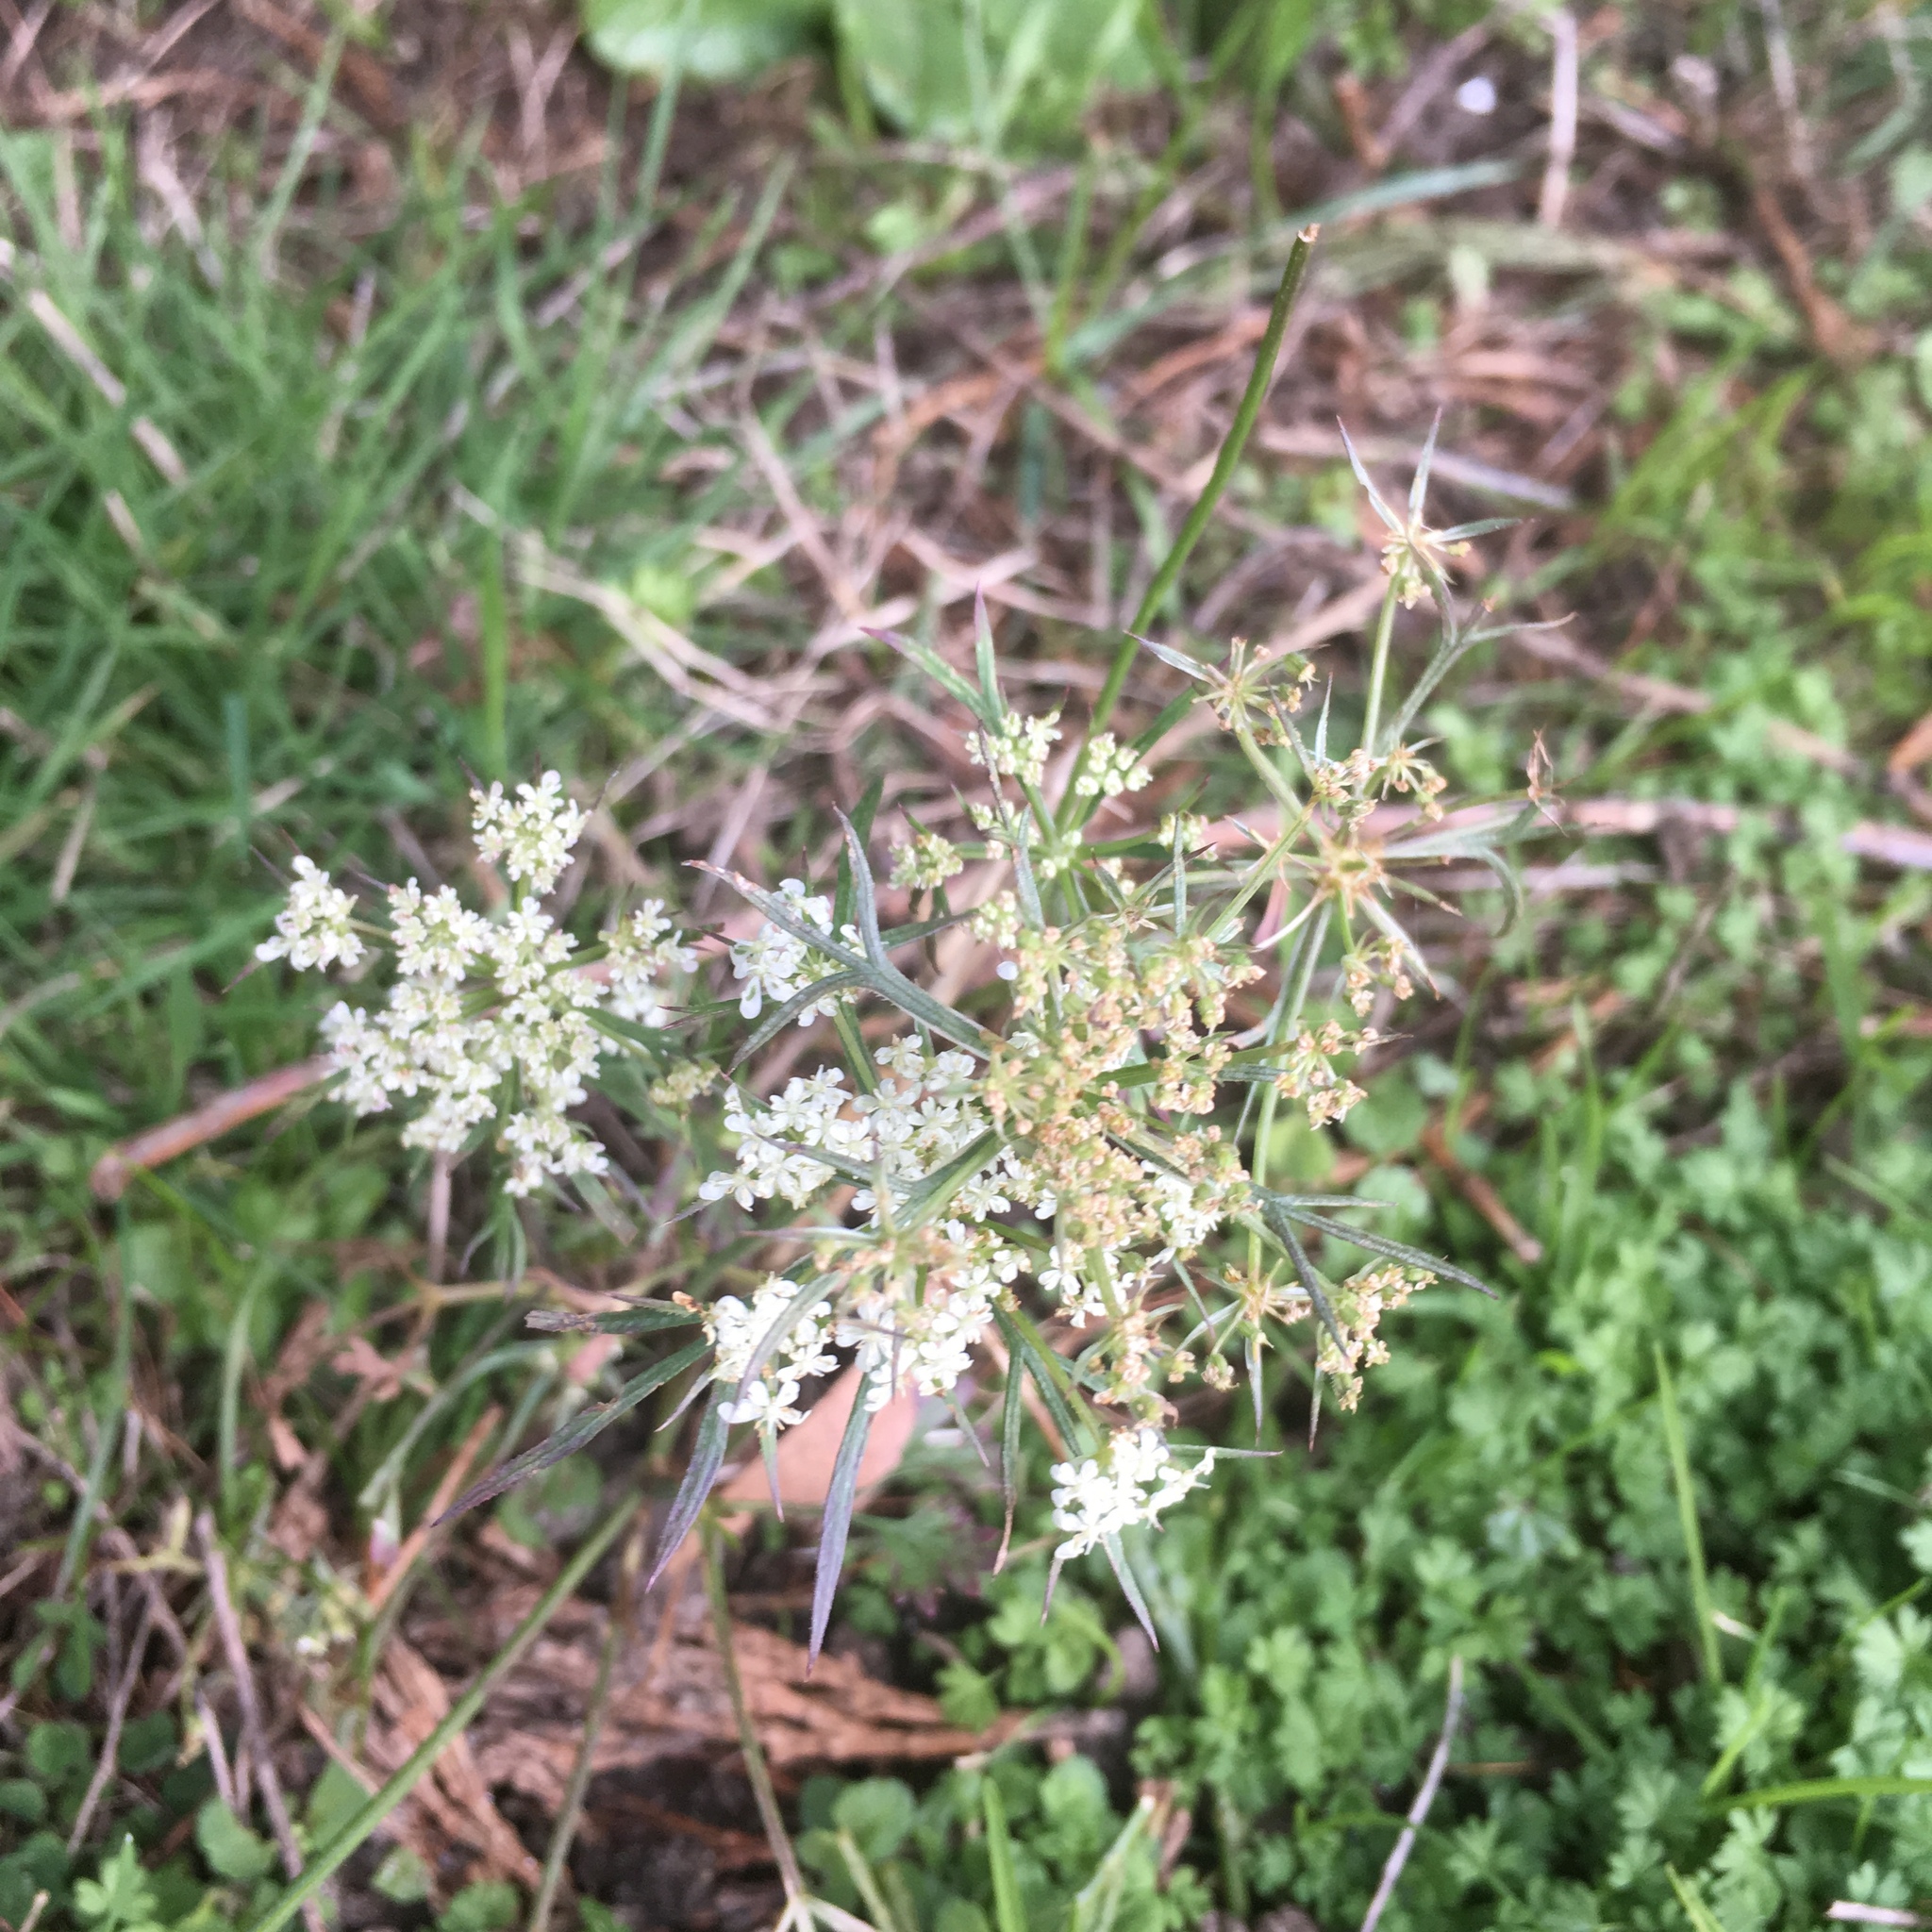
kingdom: Plantae
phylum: Tracheophyta
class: Magnoliopsida
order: Apiales
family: Apiaceae
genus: Daucus
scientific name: Daucus carota
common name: Wild carrot
